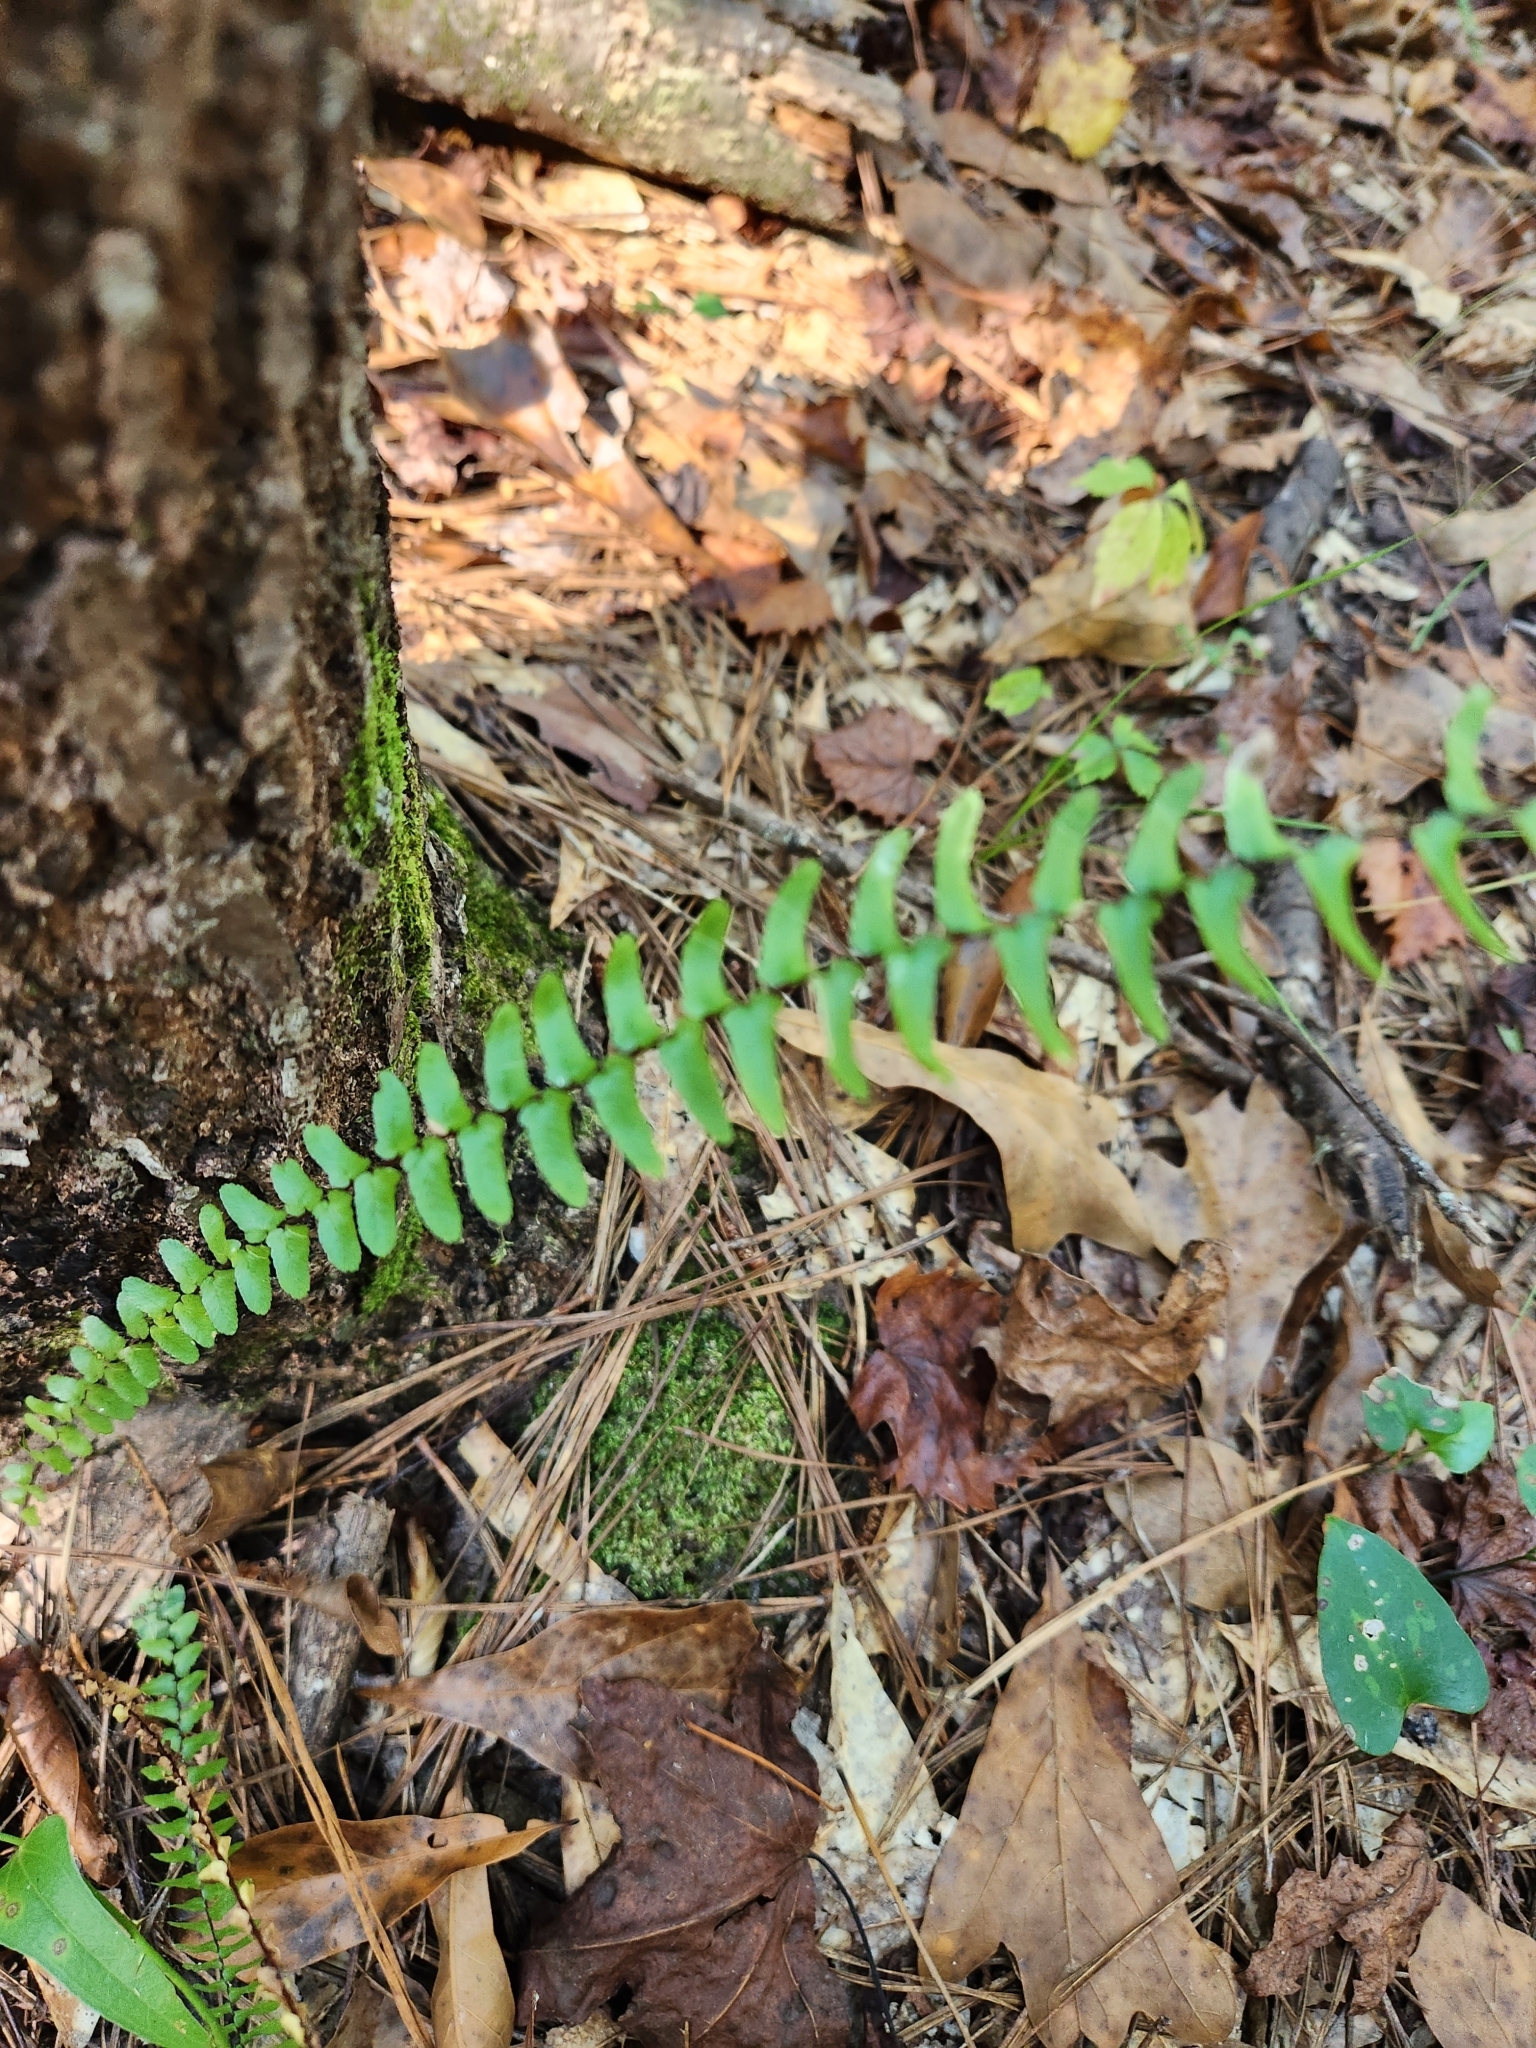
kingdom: Plantae
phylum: Tracheophyta
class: Polypodiopsida
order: Polypodiales
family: Aspleniaceae
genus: Asplenium
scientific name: Asplenium platyneuron
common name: Ebony spleenwort
